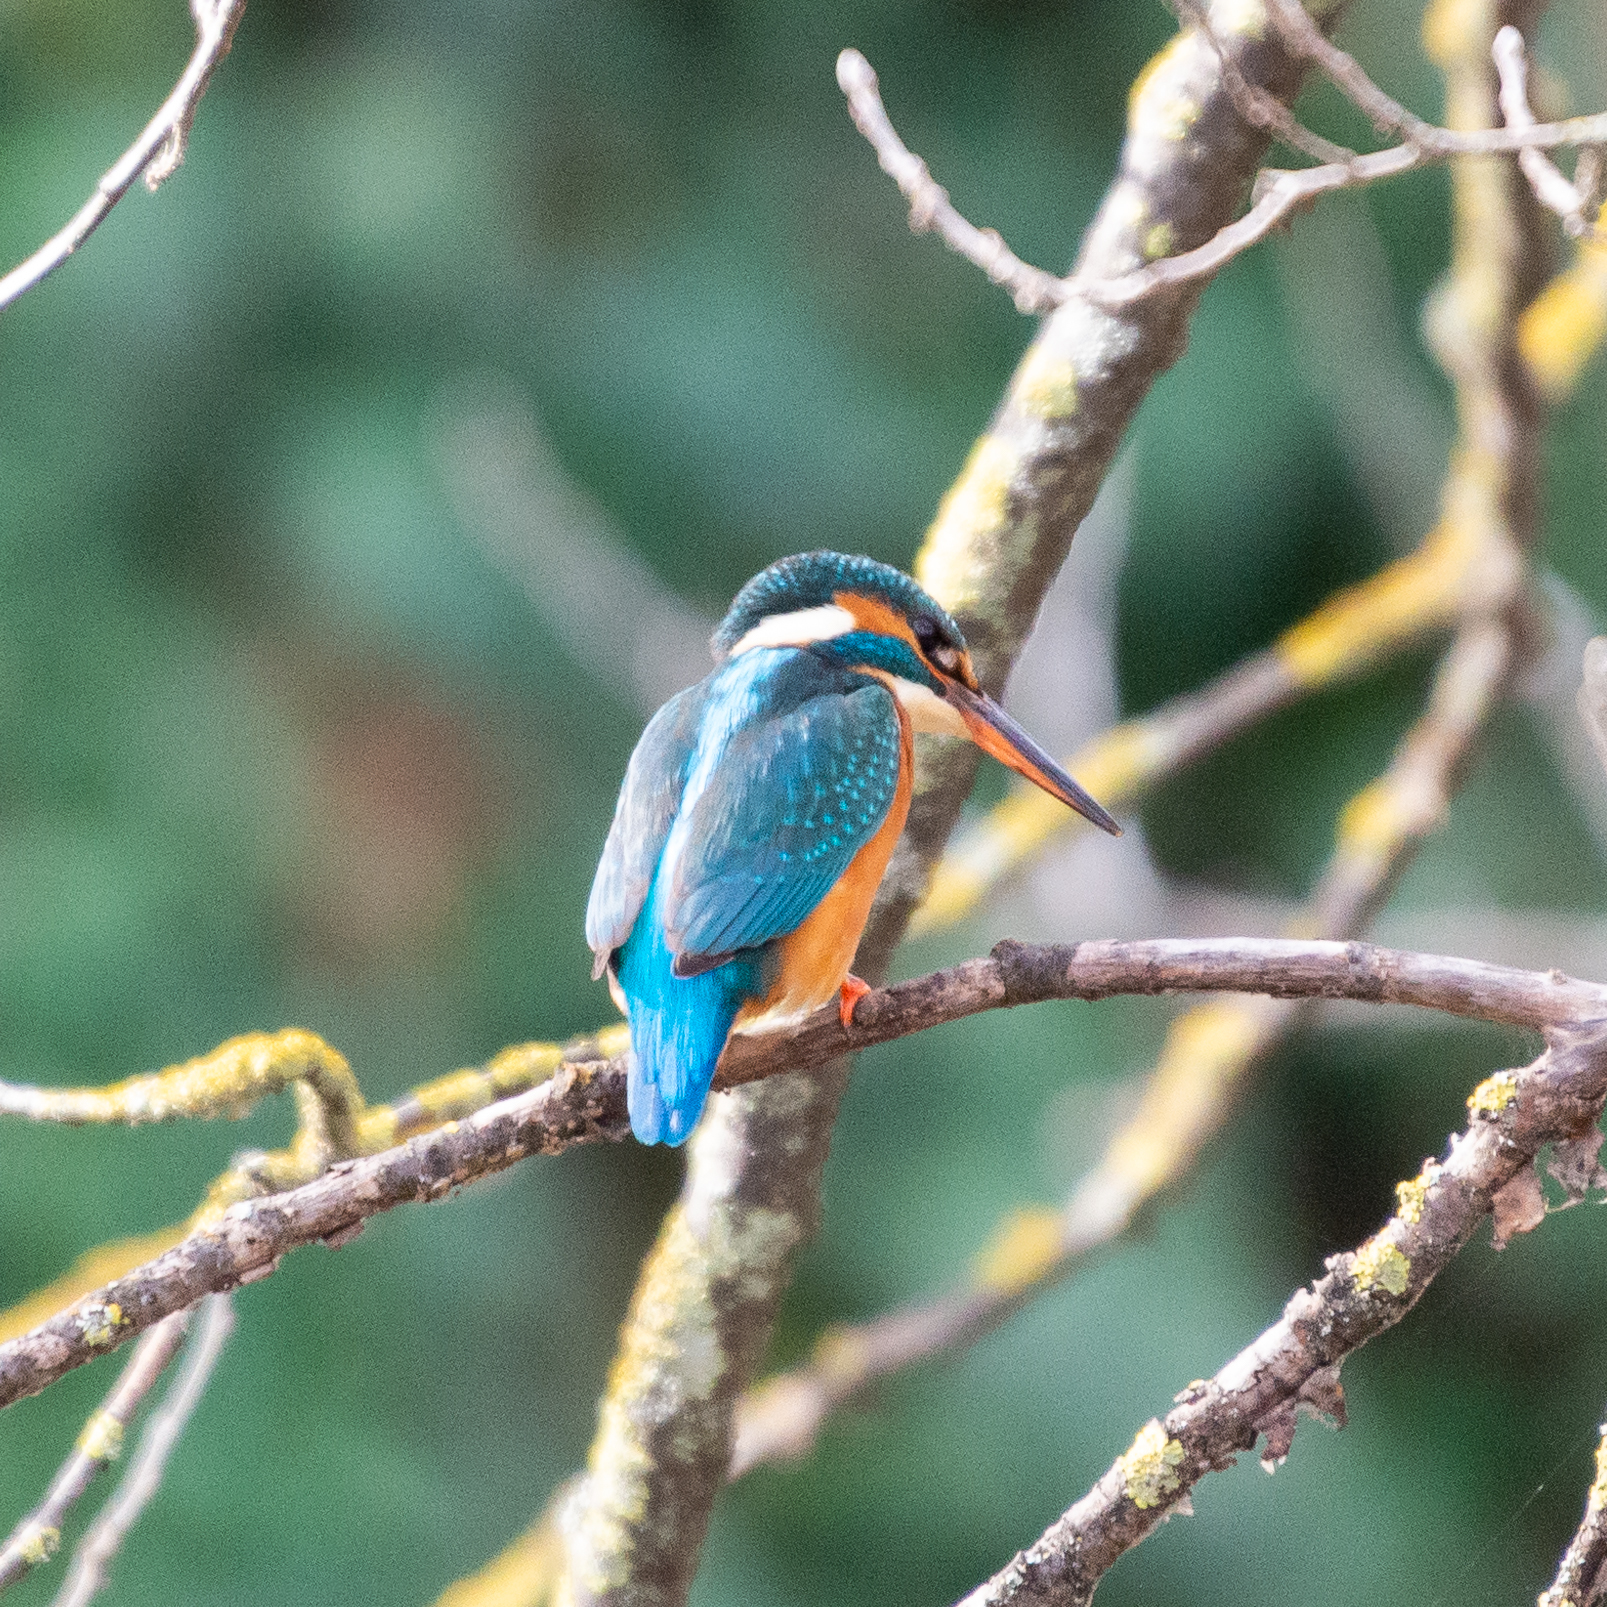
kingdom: Animalia
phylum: Chordata
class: Aves
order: Coraciiformes
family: Alcedinidae
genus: Alcedo
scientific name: Alcedo atthis
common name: Common kingfisher
